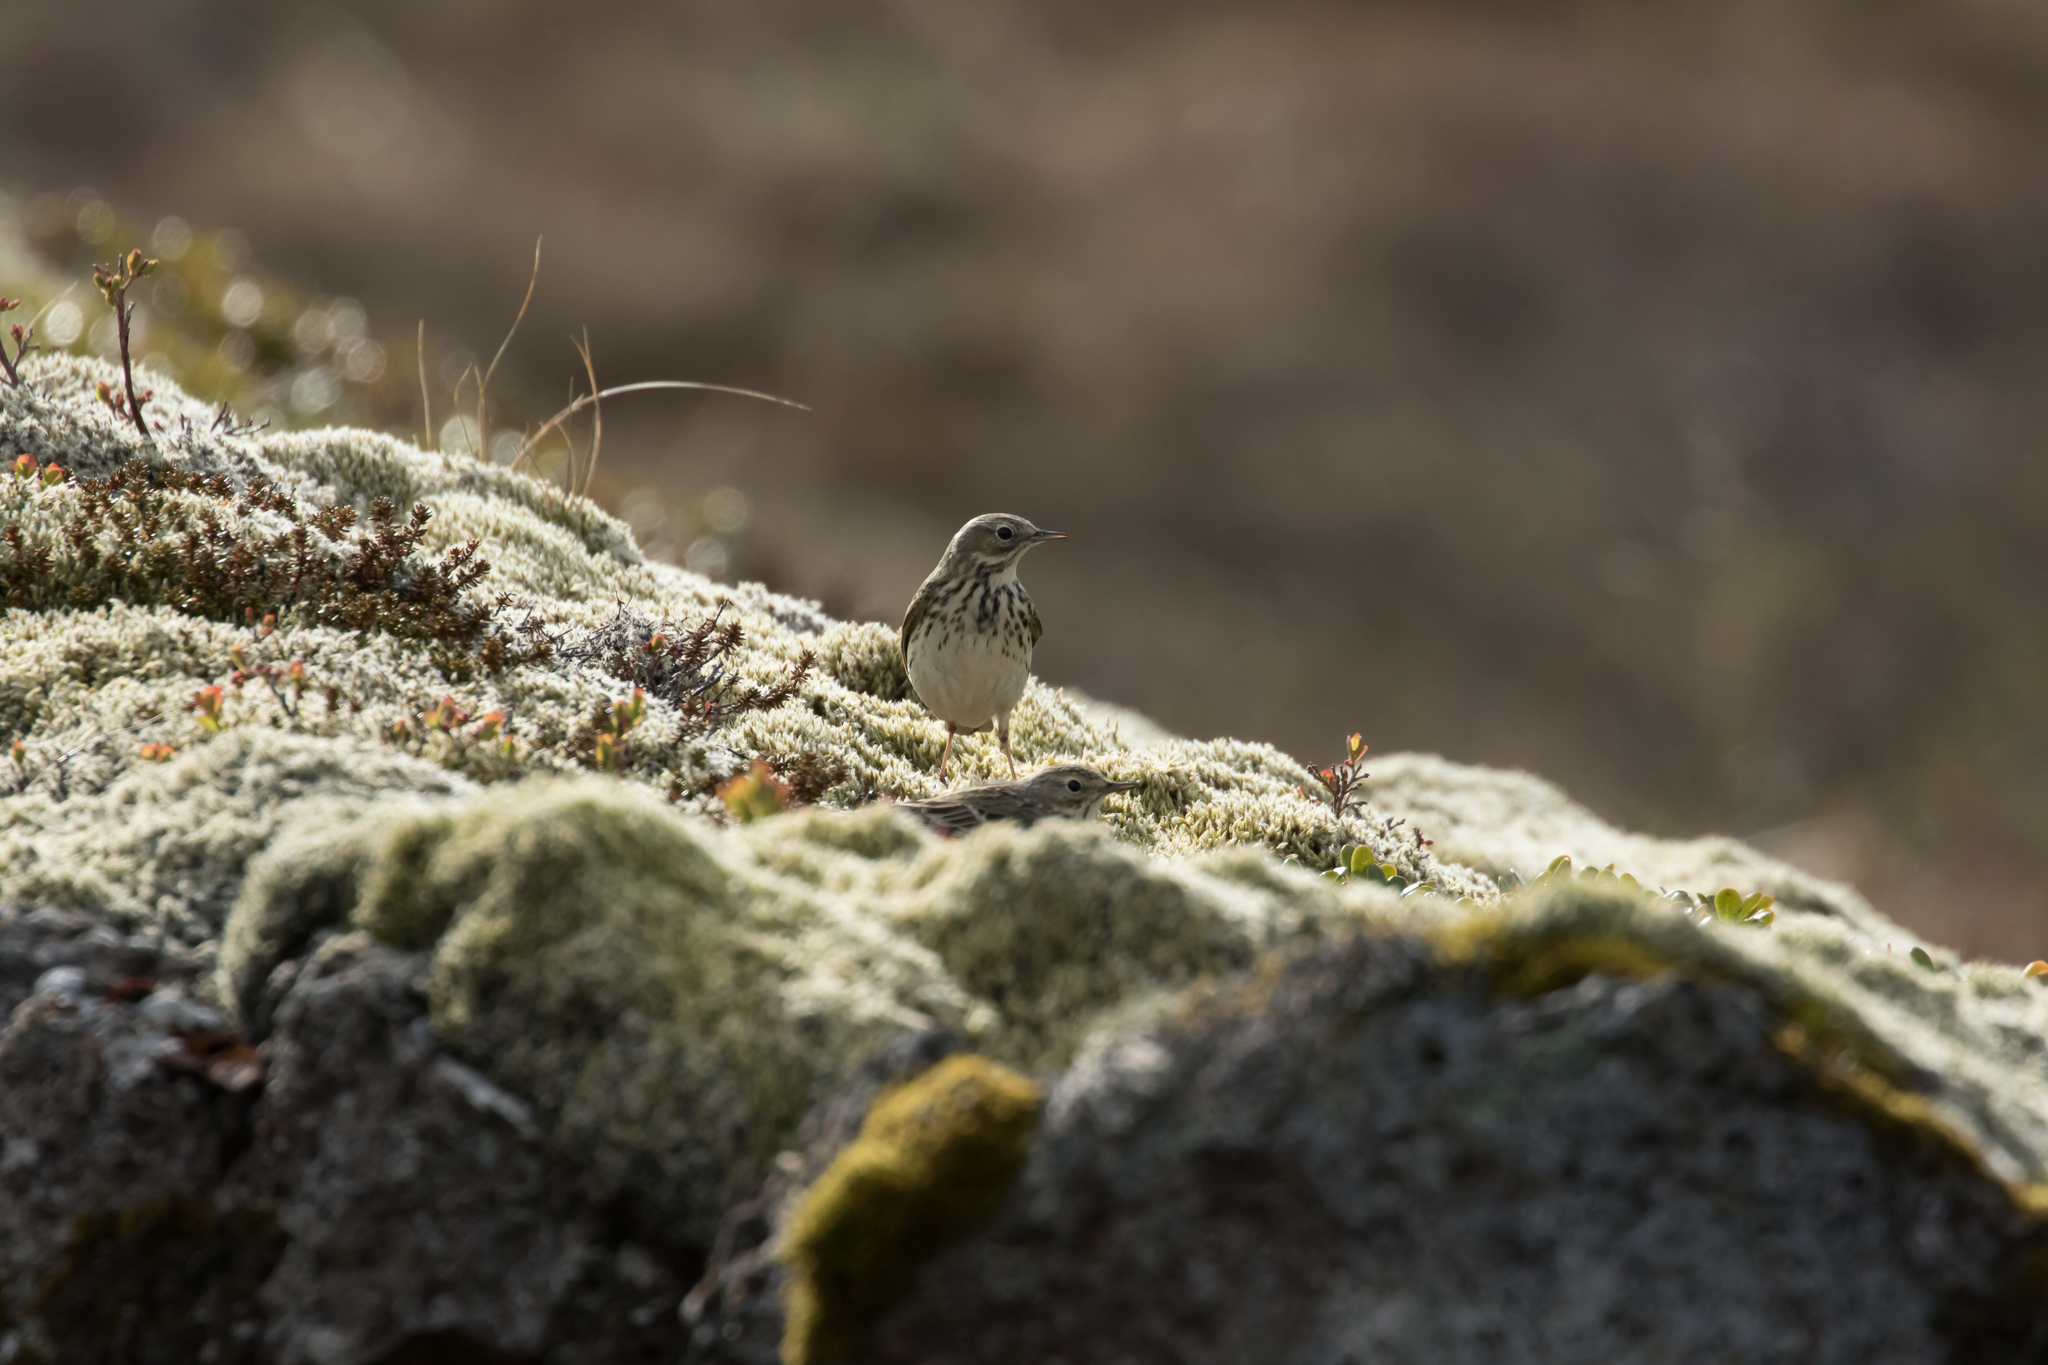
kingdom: Animalia
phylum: Chordata
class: Aves
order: Passeriformes
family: Motacillidae
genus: Anthus
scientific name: Anthus pratensis
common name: Meadow pipit
